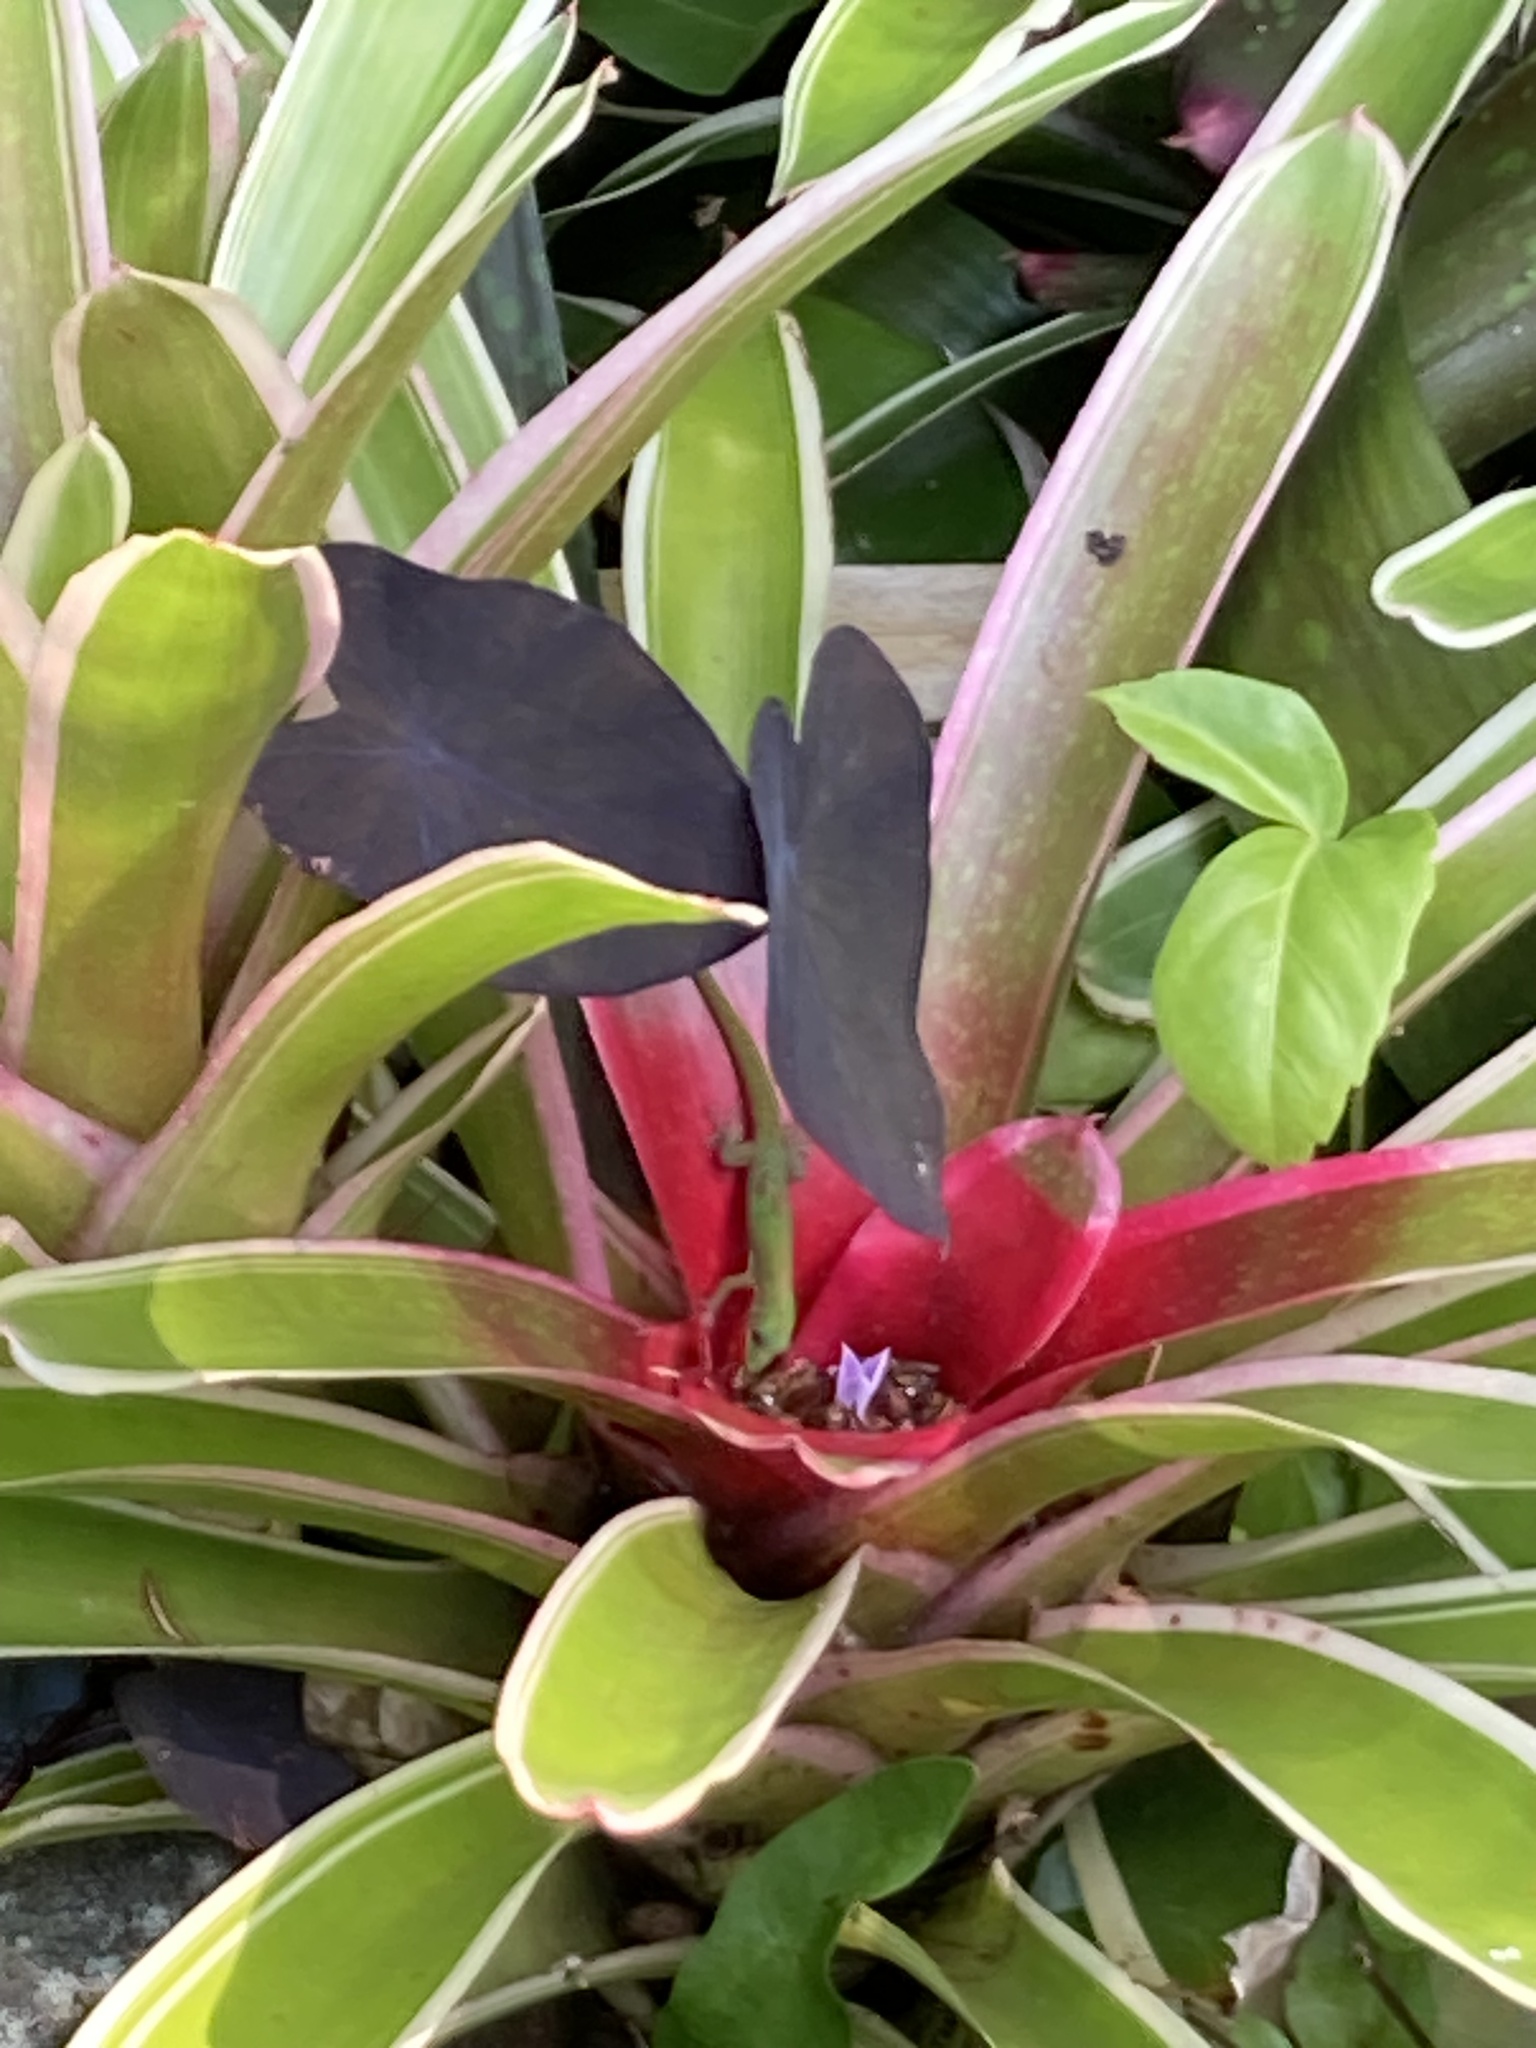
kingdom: Animalia
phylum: Chordata
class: Squamata
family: Gekkonidae
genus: Phelsuma
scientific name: Phelsuma laticauda
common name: Gold dust day gecko
